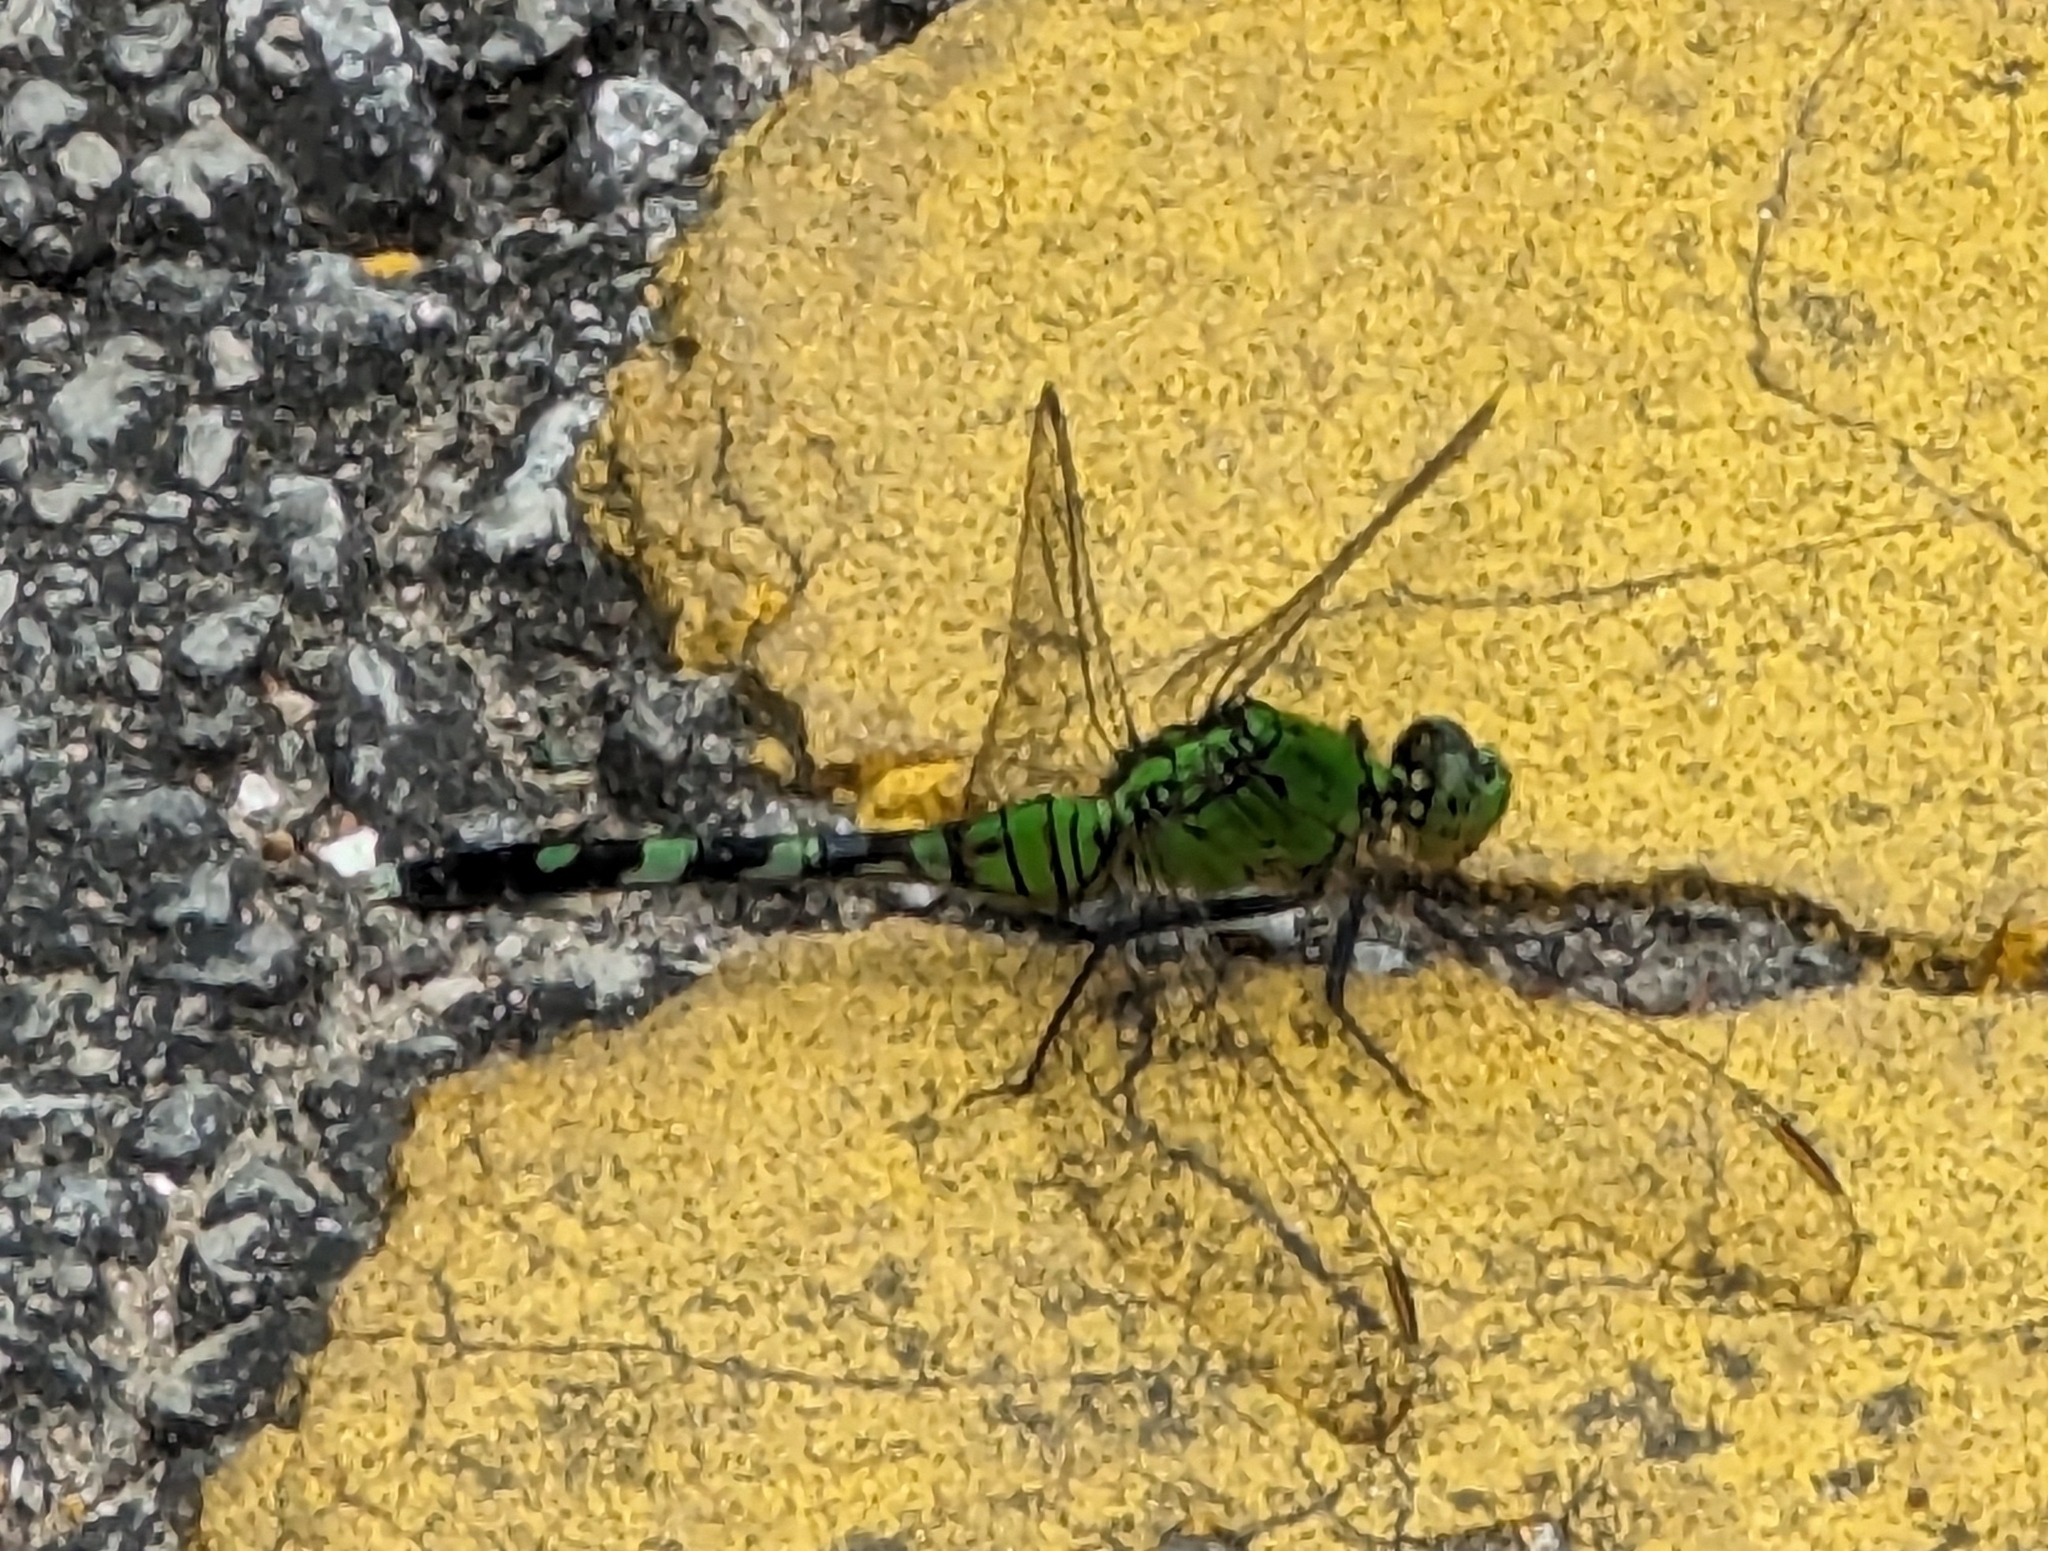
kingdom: Animalia
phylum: Arthropoda
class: Insecta
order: Odonata
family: Libellulidae
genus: Erythemis
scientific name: Erythemis simplicicollis
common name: Eastern pondhawk
